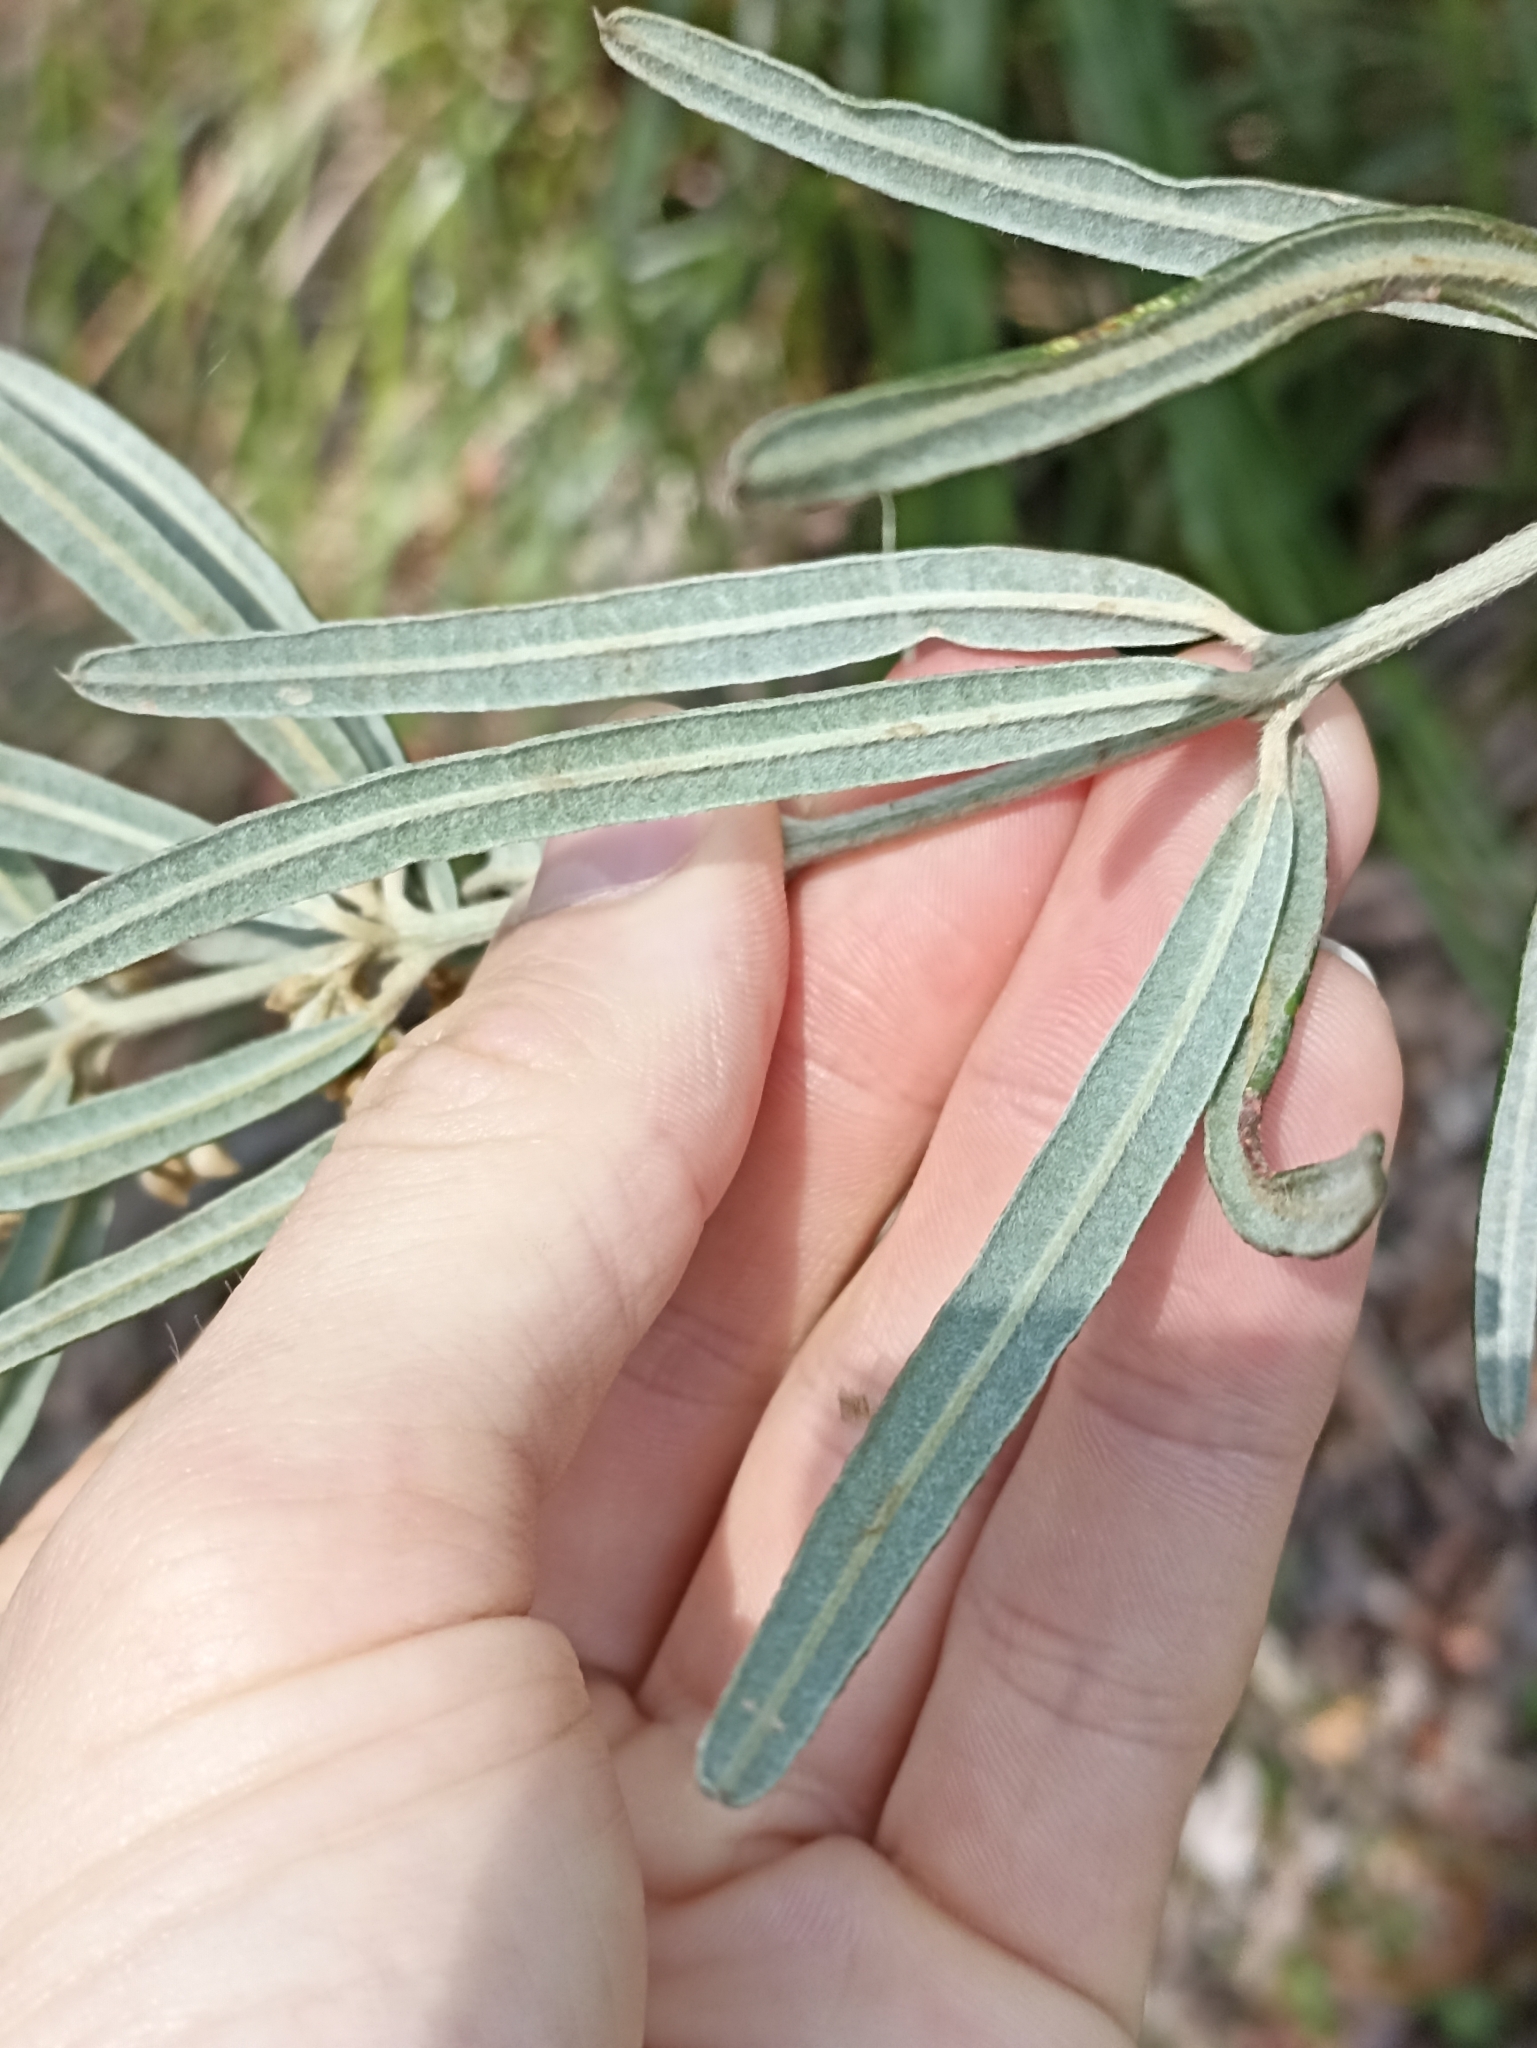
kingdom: Plantae
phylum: Tracheophyta
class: Magnoliopsida
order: Fabales
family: Fabaceae
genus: Oxylobium
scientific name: Oxylobium robustum
